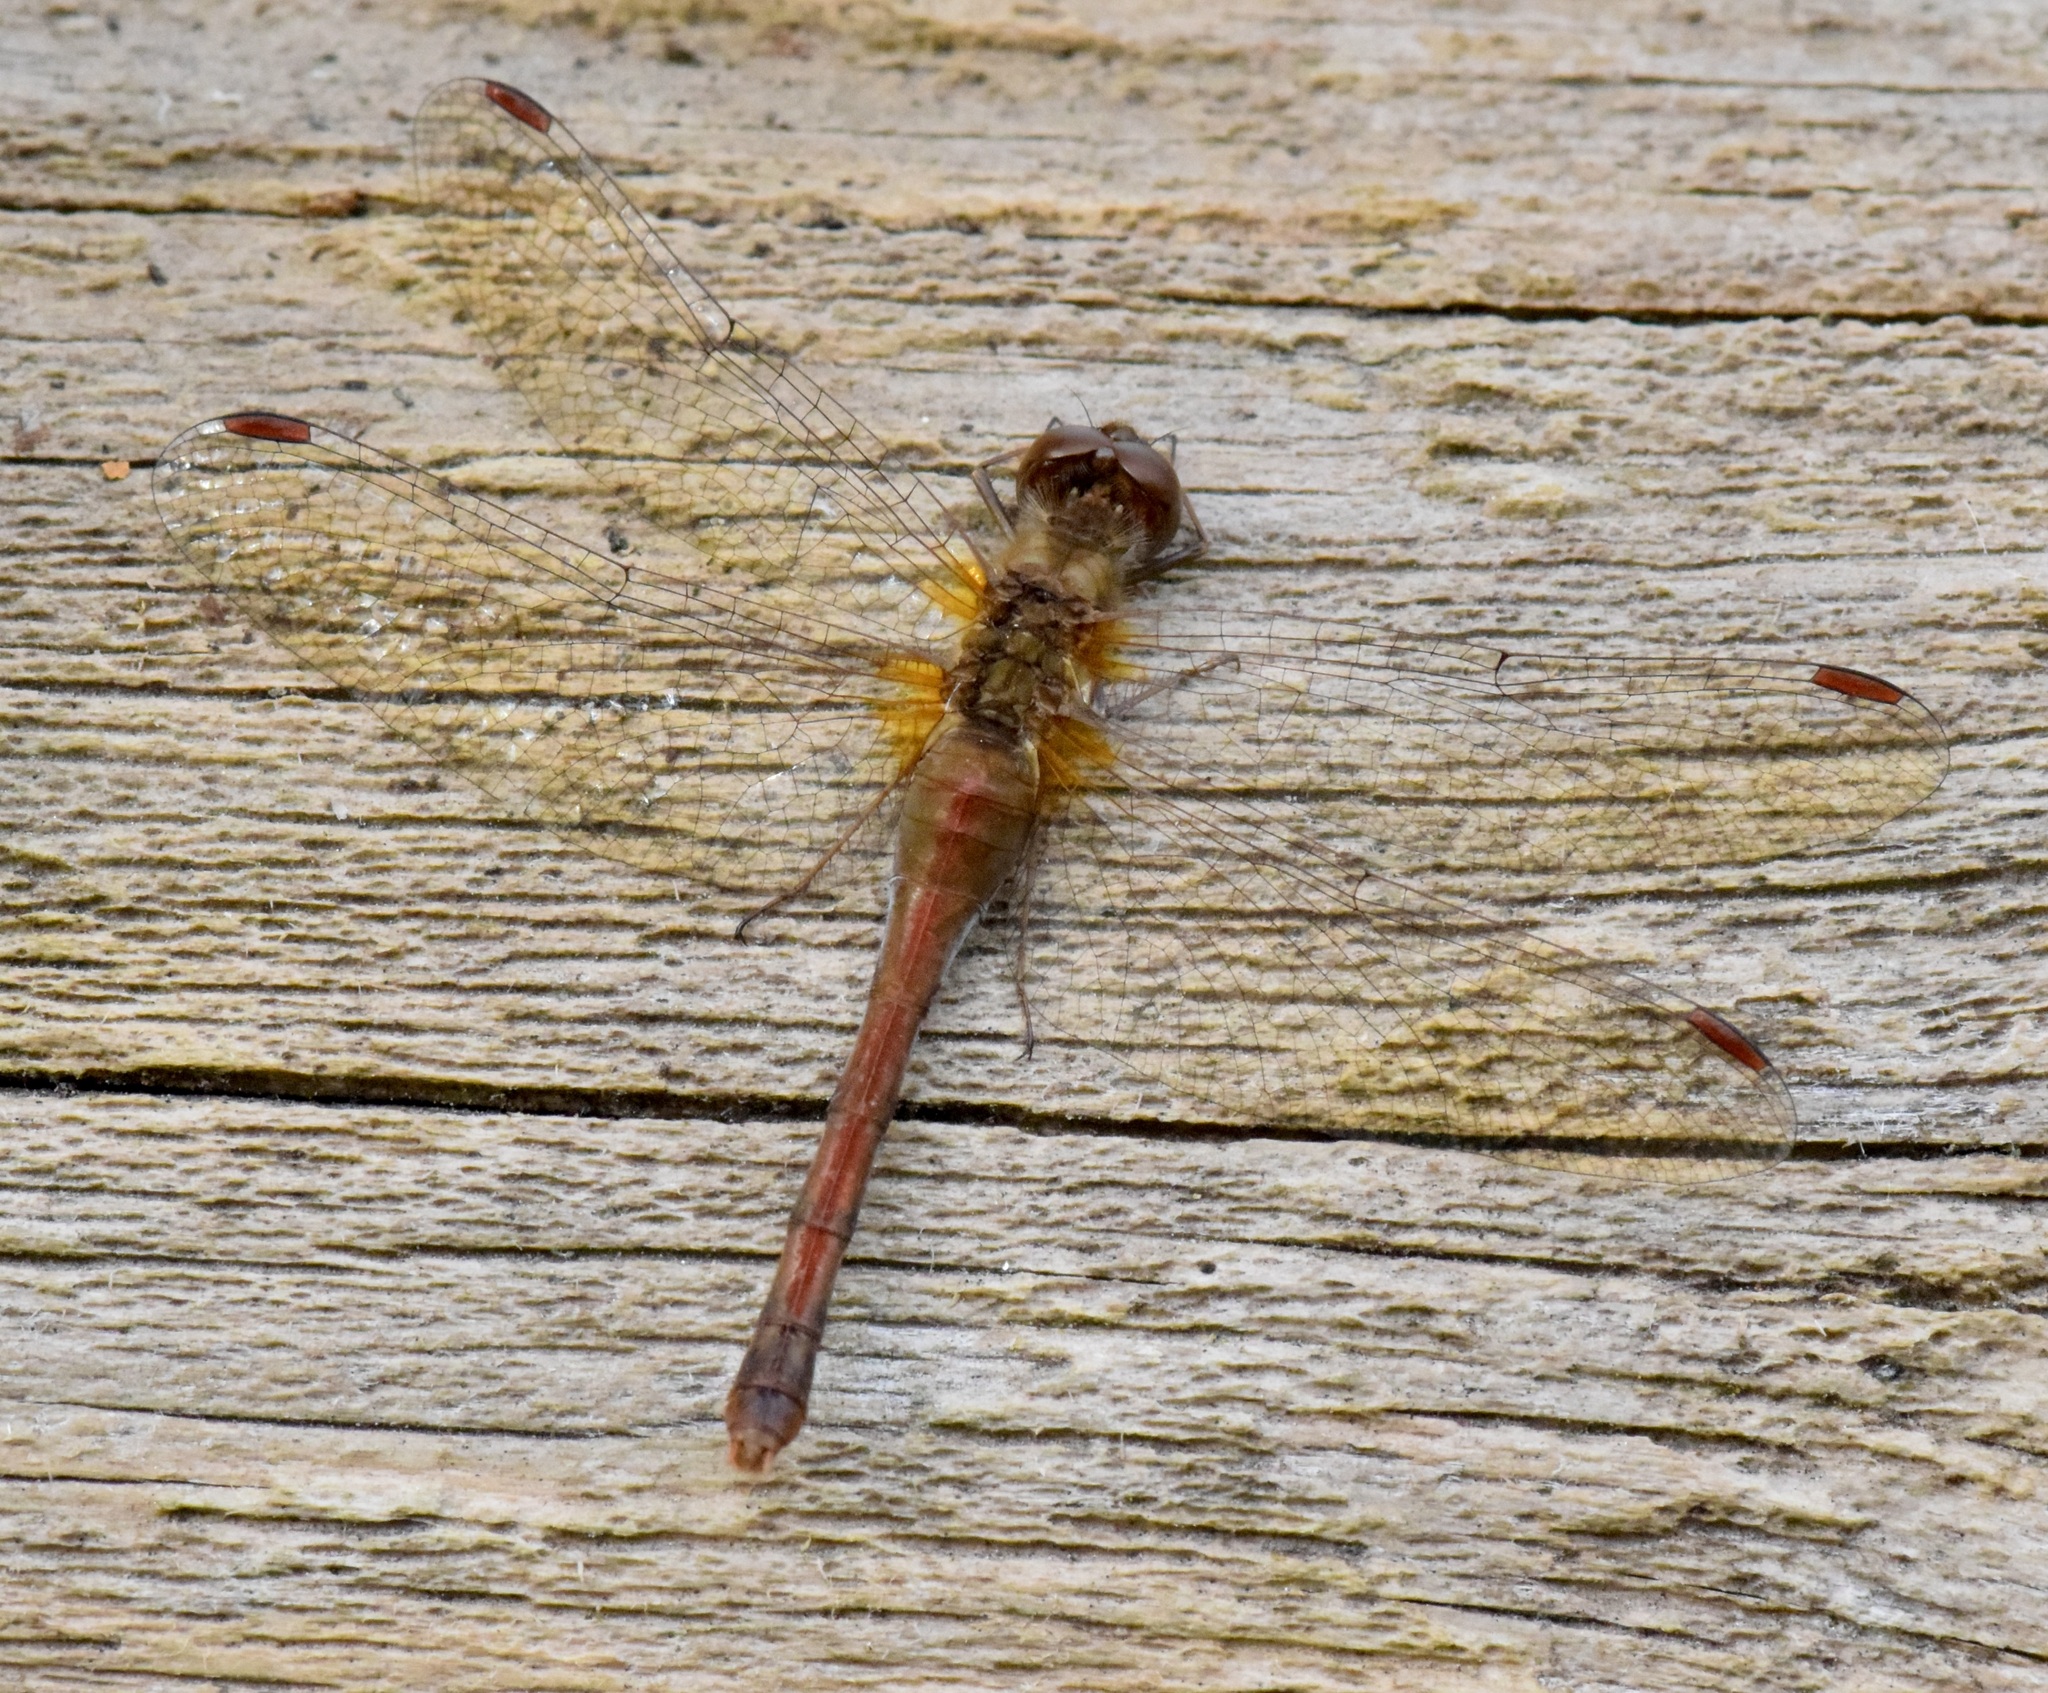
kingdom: Animalia
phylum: Arthropoda
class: Insecta
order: Odonata
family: Libellulidae
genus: Sympetrum
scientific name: Sympetrum vicinum
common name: Autumn meadowhawk
